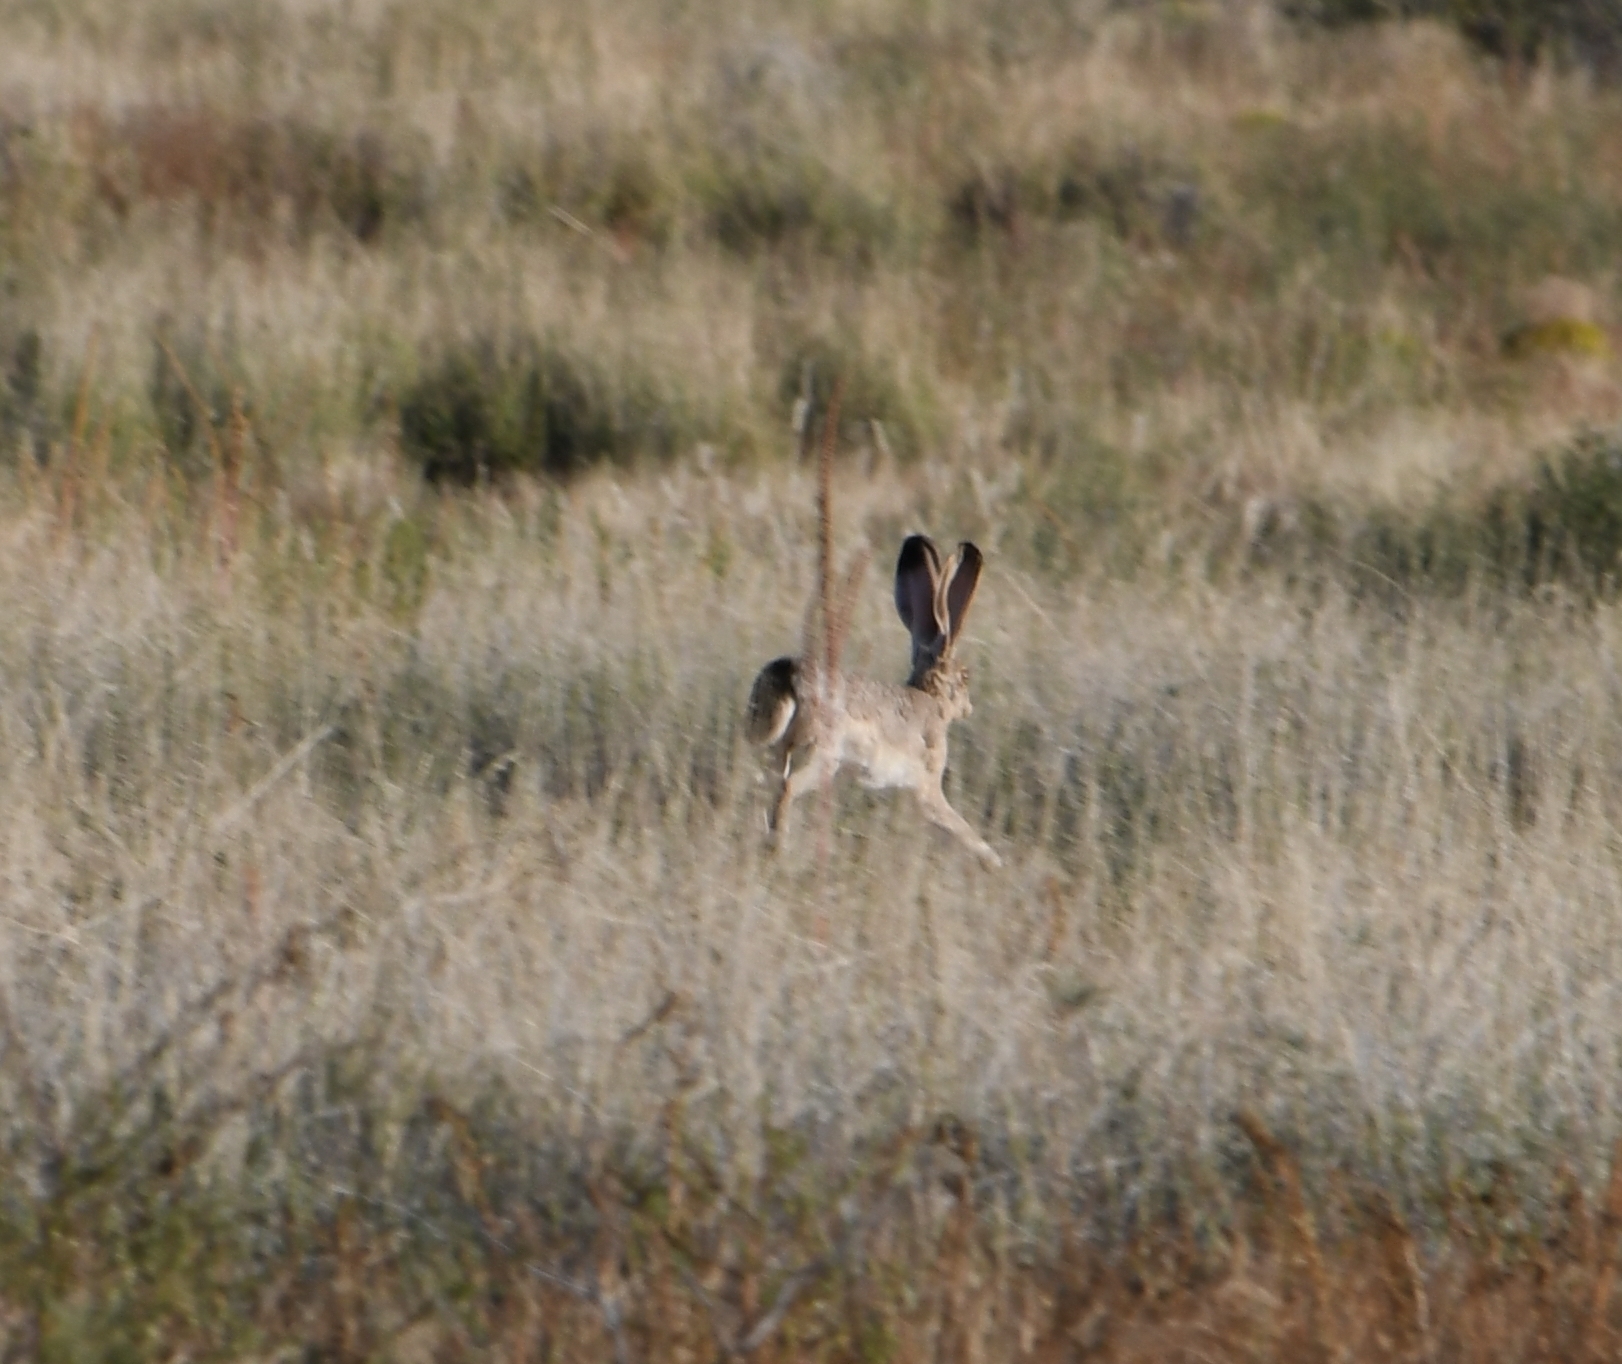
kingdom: Animalia
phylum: Chordata
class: Mammalia
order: Lagomorpha
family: Leporidae
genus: Lepus
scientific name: Lepus californicus
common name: Black-tailed jackrabbit
